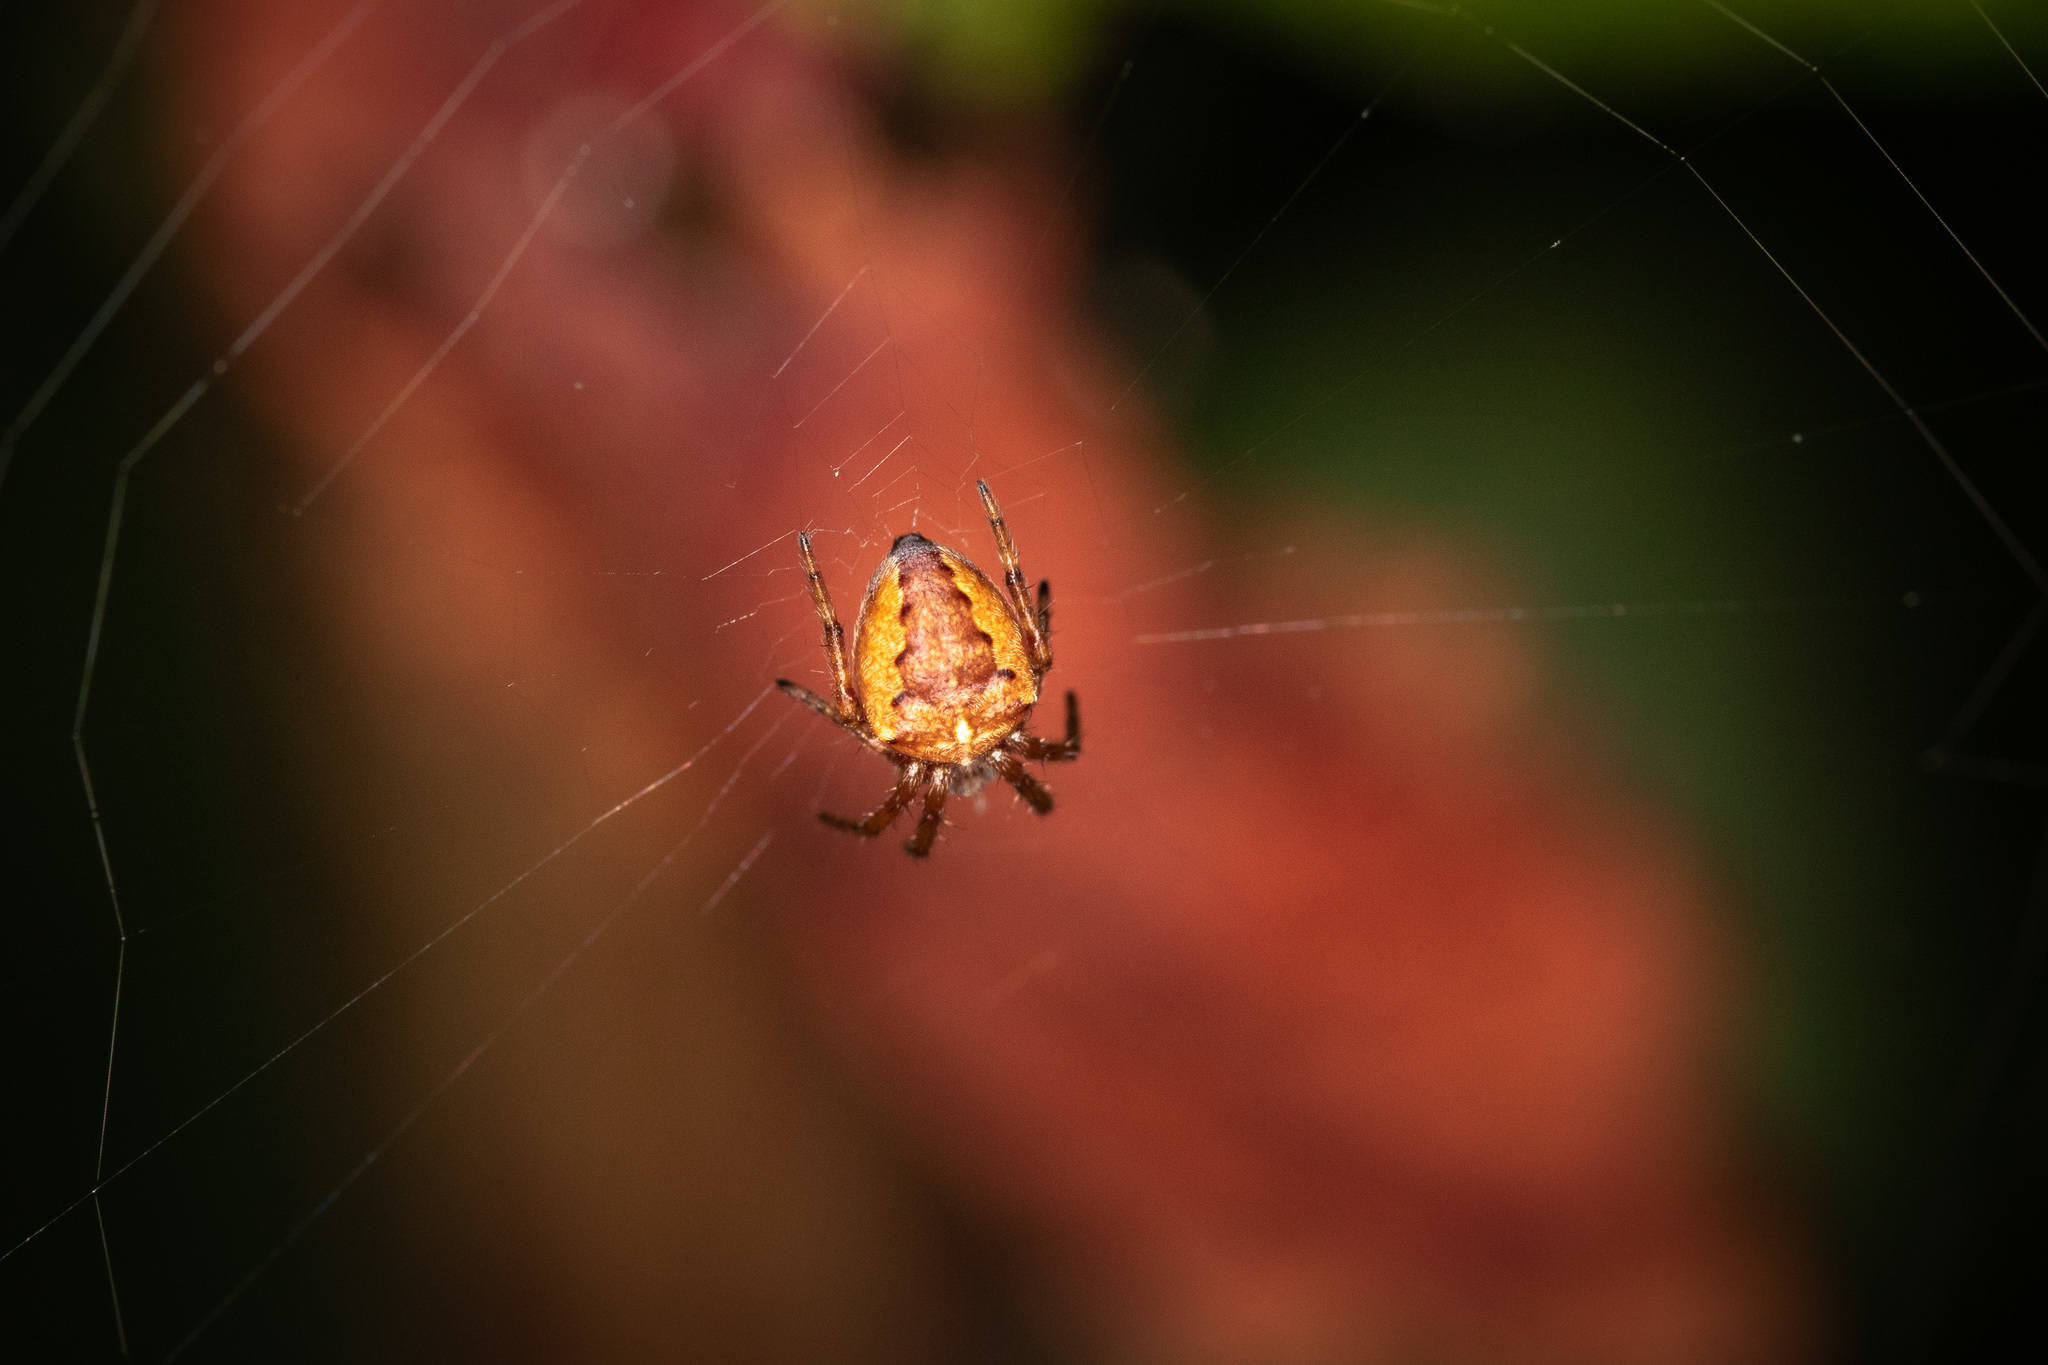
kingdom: Animalia
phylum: Arthropoda
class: Arachnida
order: Araneae
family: Araneidae
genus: Araneus
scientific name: Araneus diadematus
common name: Cross orbweaver
